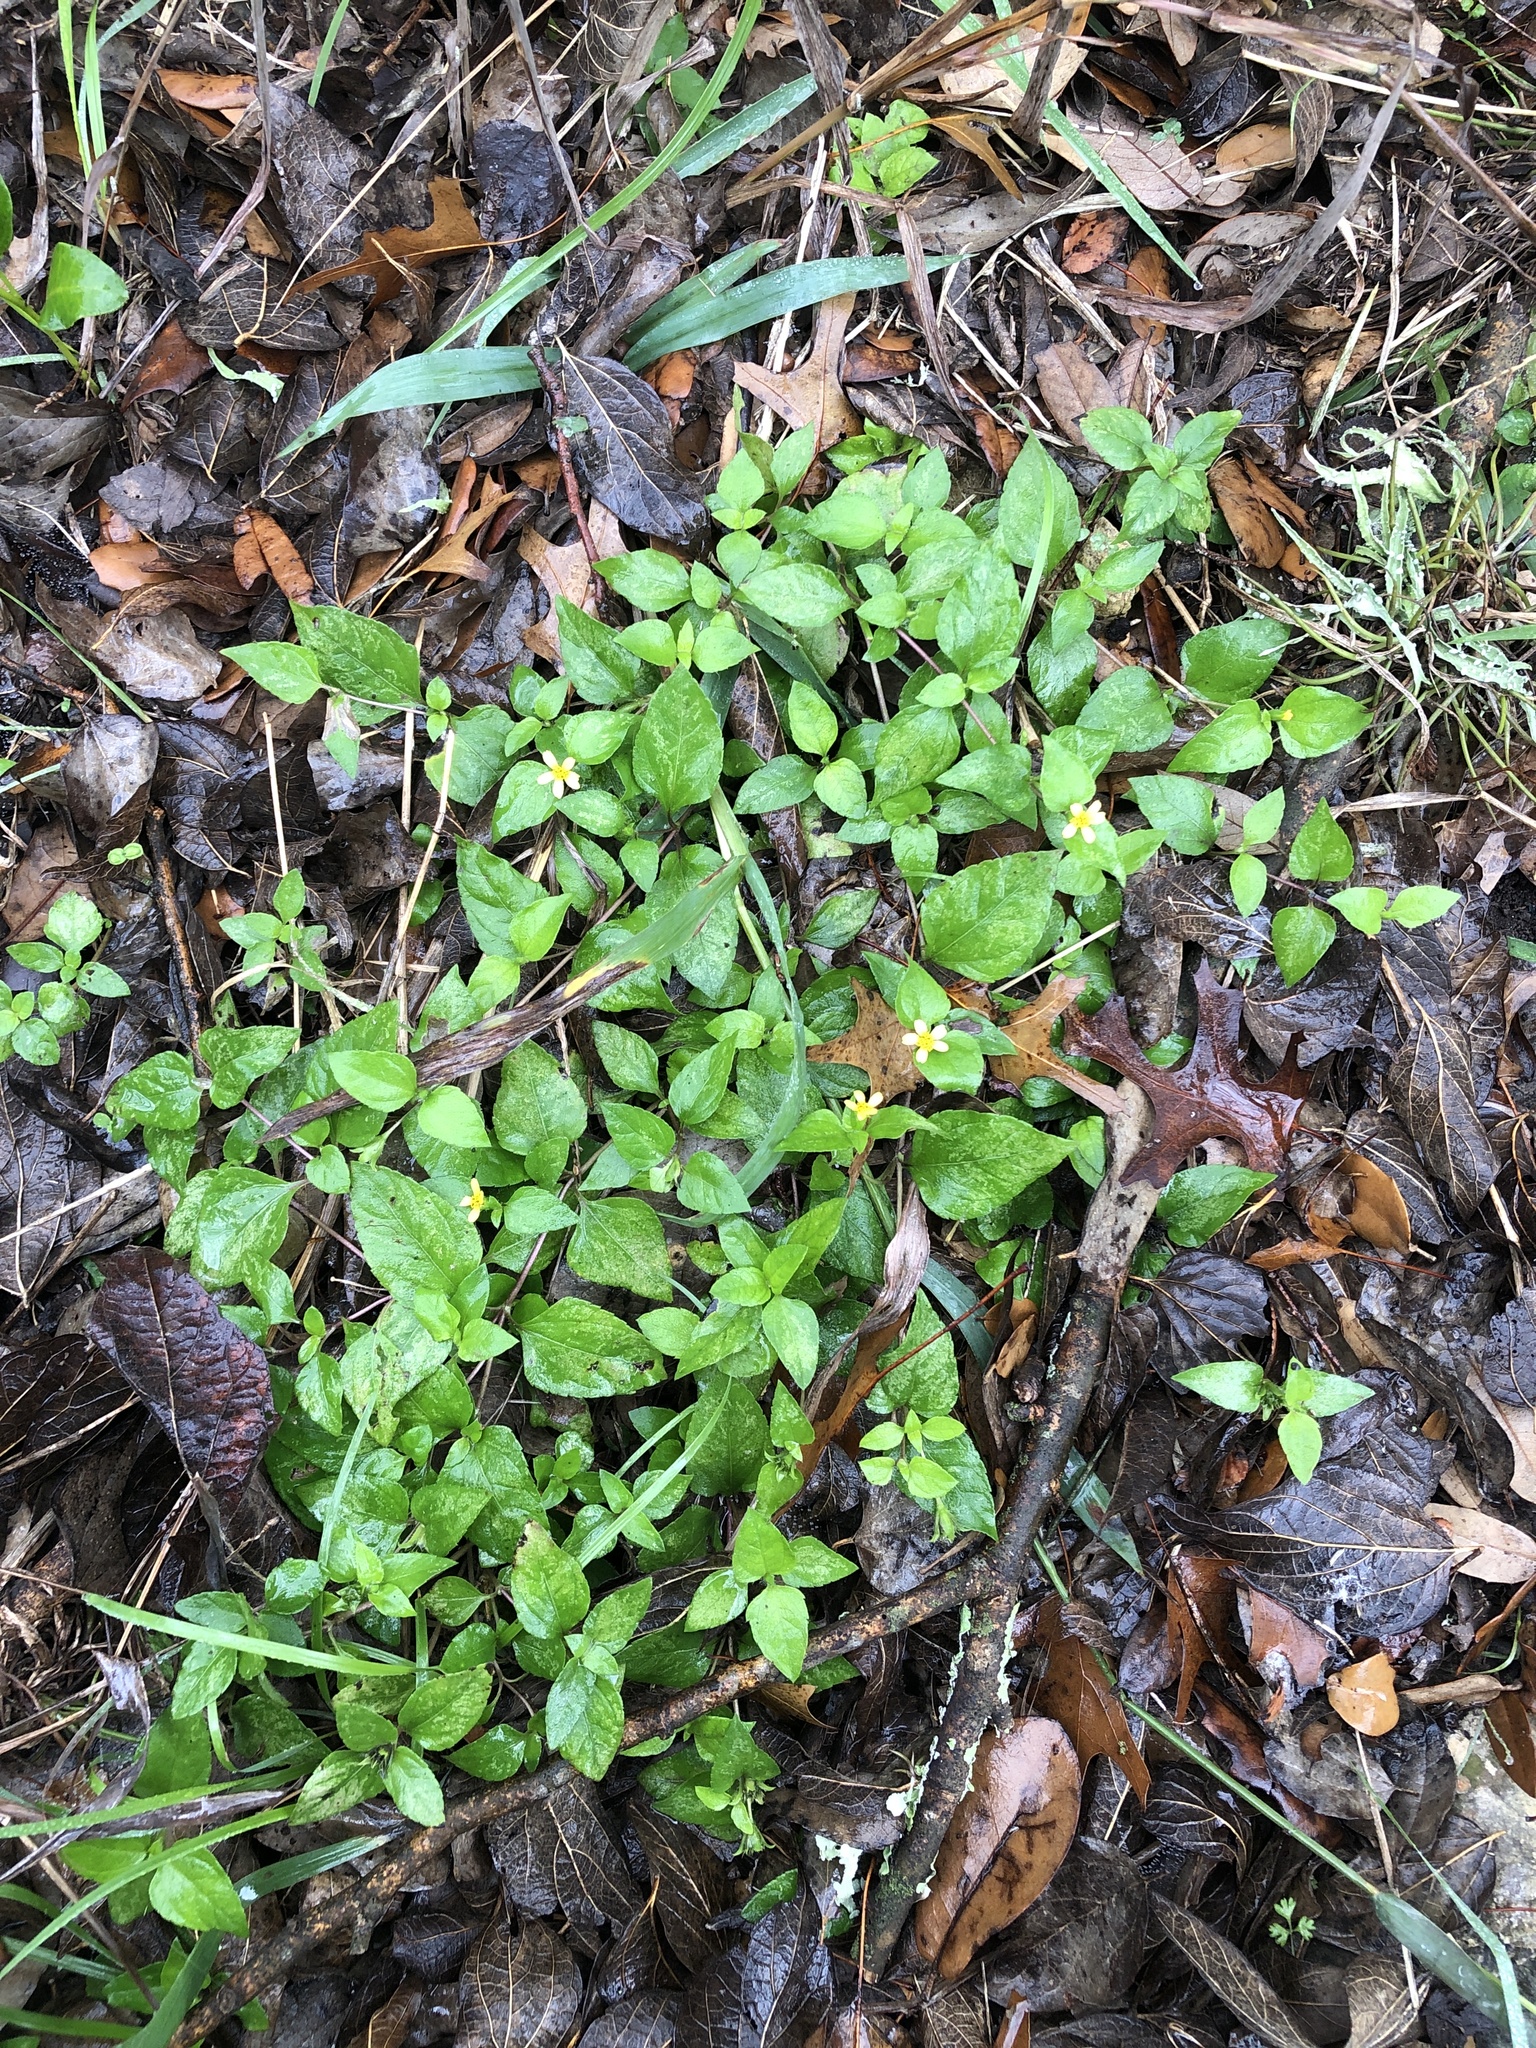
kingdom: Plantae
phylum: Tracheophyta
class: Magnoliopsida
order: Asterales
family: Asteraceae
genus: Calyptocarpus
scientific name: Calyptocarpus vialis
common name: Straggler daisy
